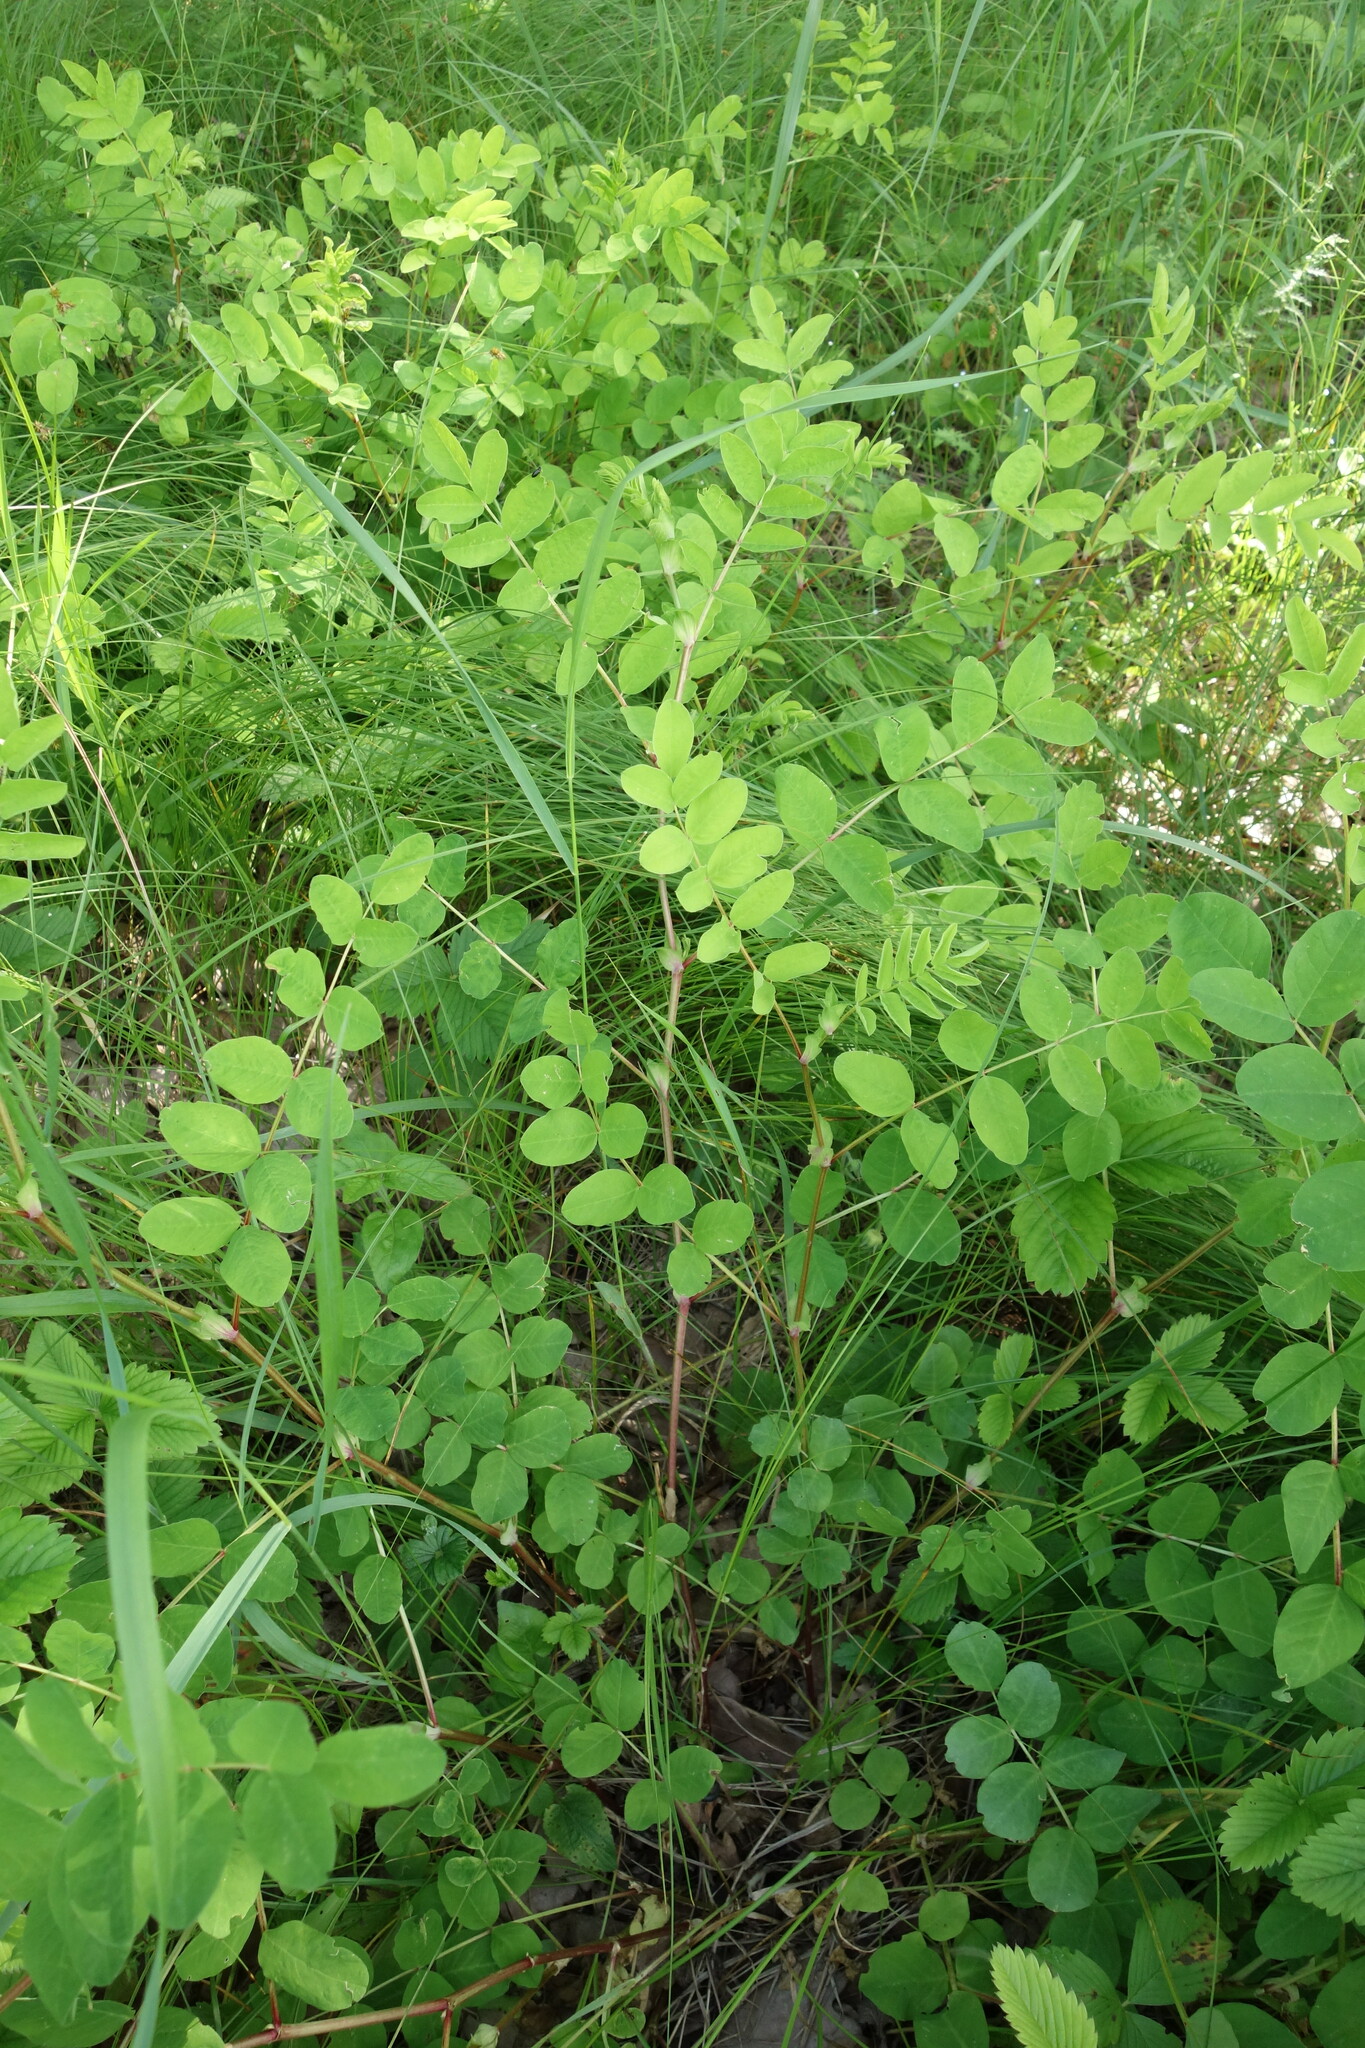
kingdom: Plantae
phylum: Tracheophyta
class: Magnoliopsida
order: Fabales
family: Fabaceae
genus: Astragalus
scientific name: Astragalus glycyphyllos
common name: Wild liquorice
